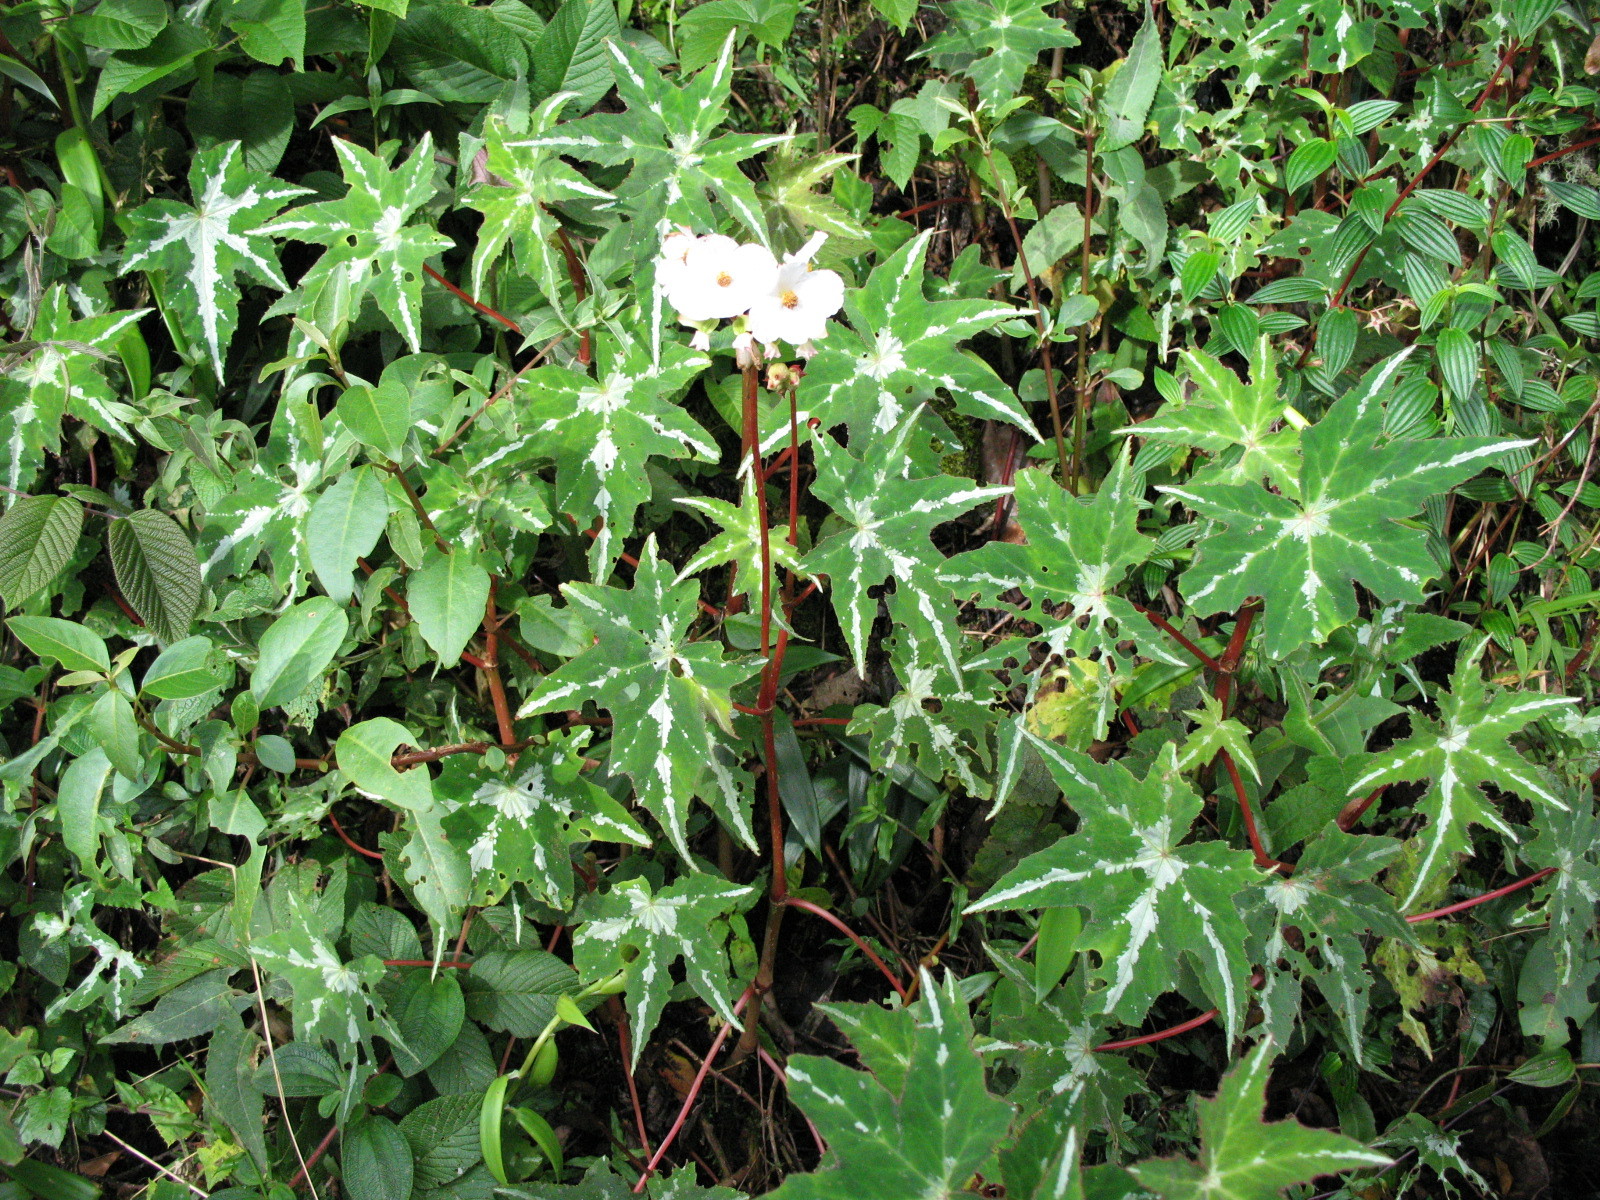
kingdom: Plantae
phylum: Tracheophyta
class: Magnoliopsida
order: Cucurbitales
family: Begoniaceae
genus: Begonia
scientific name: Begonia acerifolia
